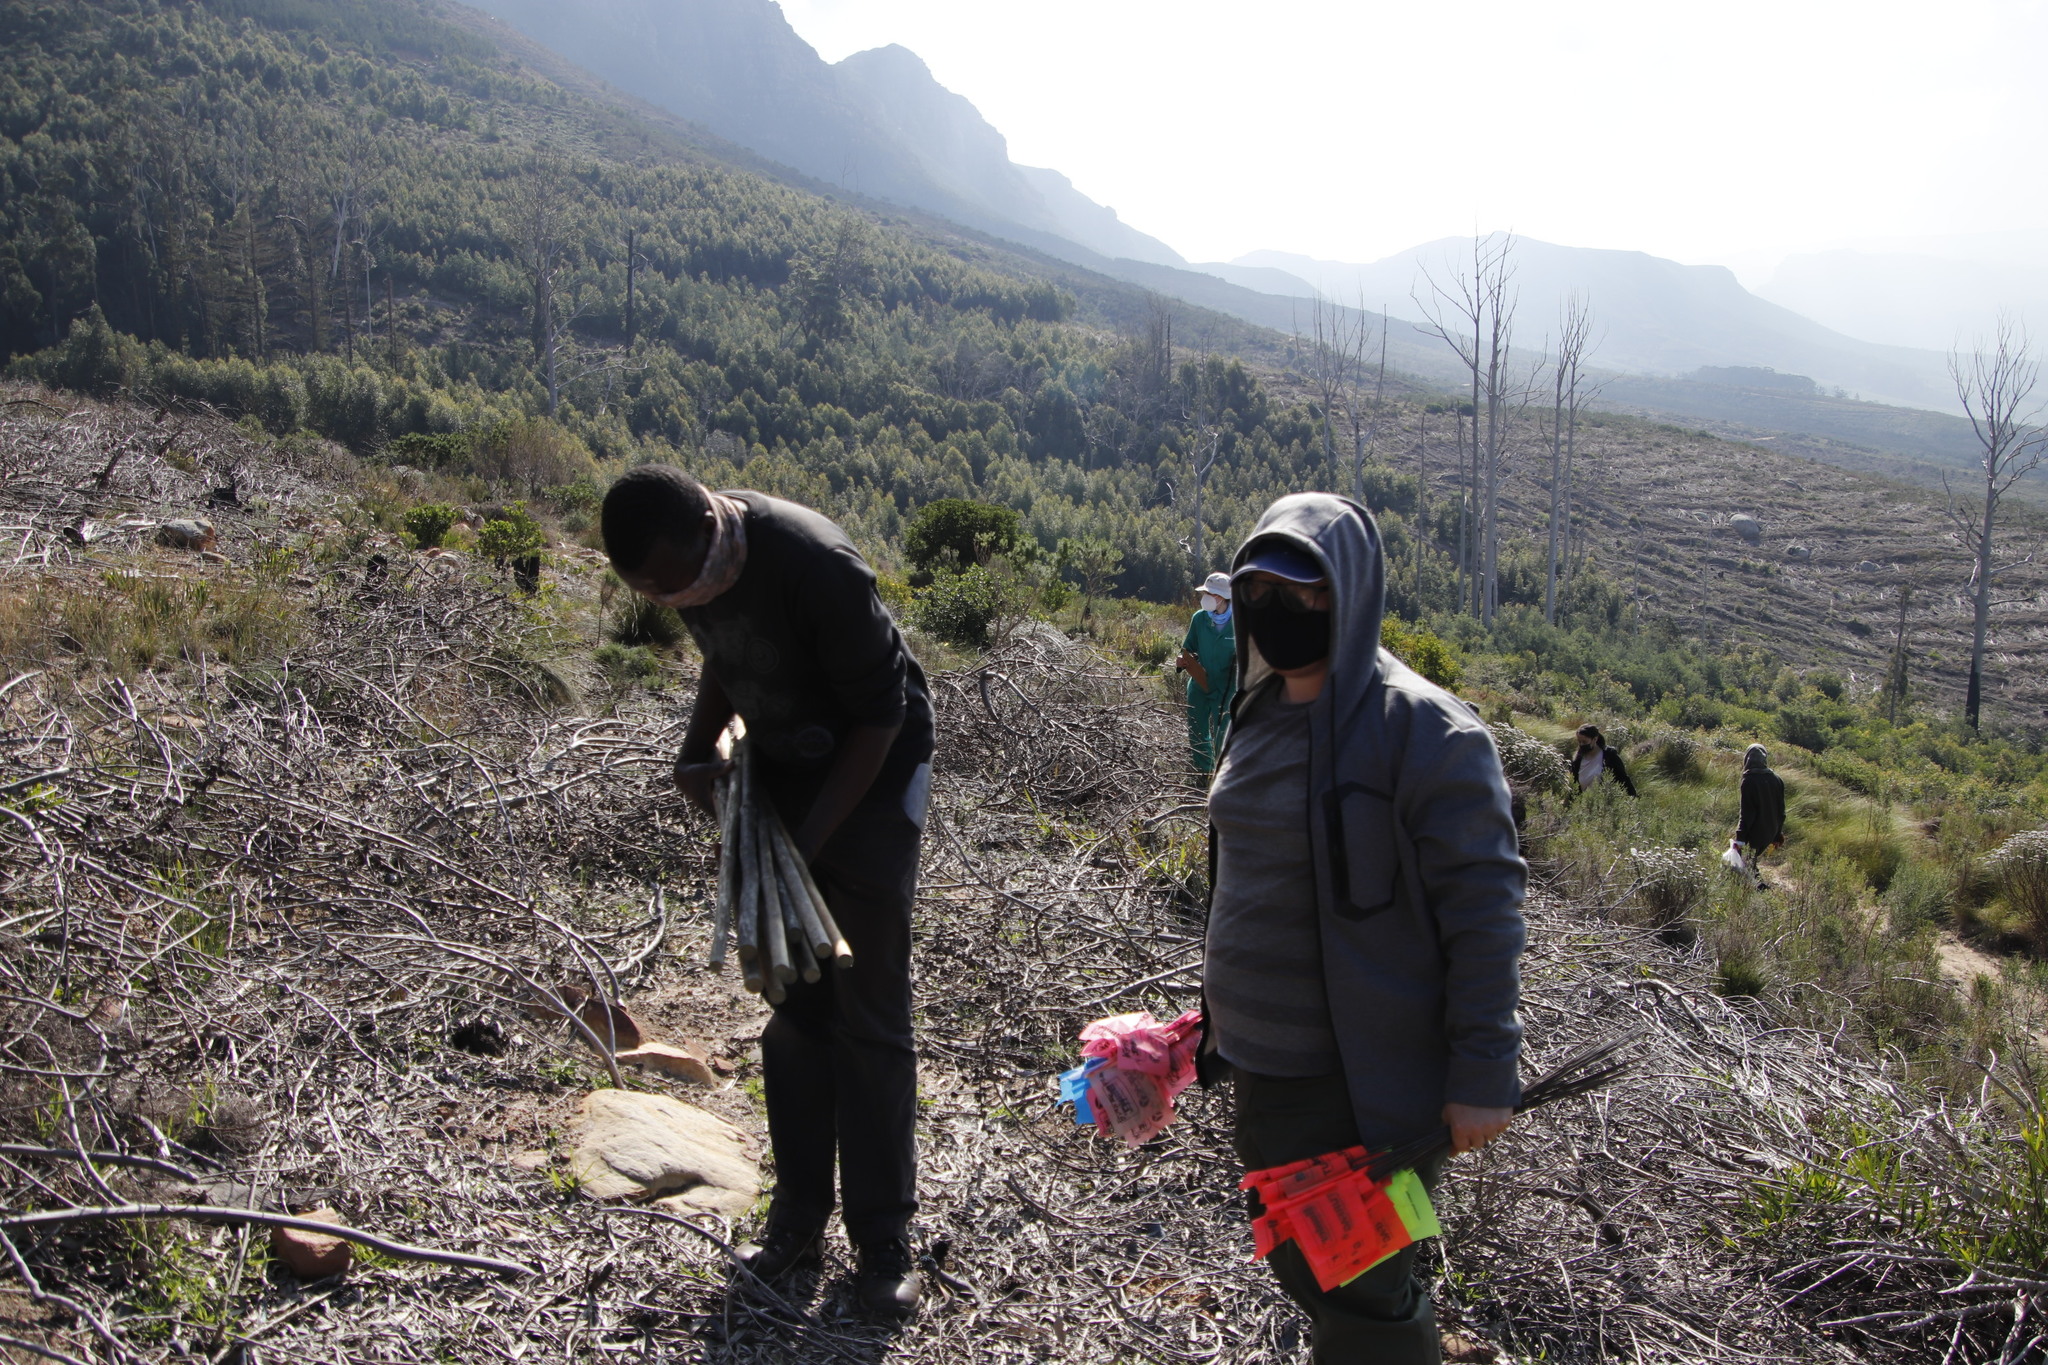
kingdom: Plantae
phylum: Tracheophyta
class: Magnoliopsida
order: Fabales
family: Fabaceae
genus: Acacia
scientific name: Acacia longifolia
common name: Sydney golden wattle
